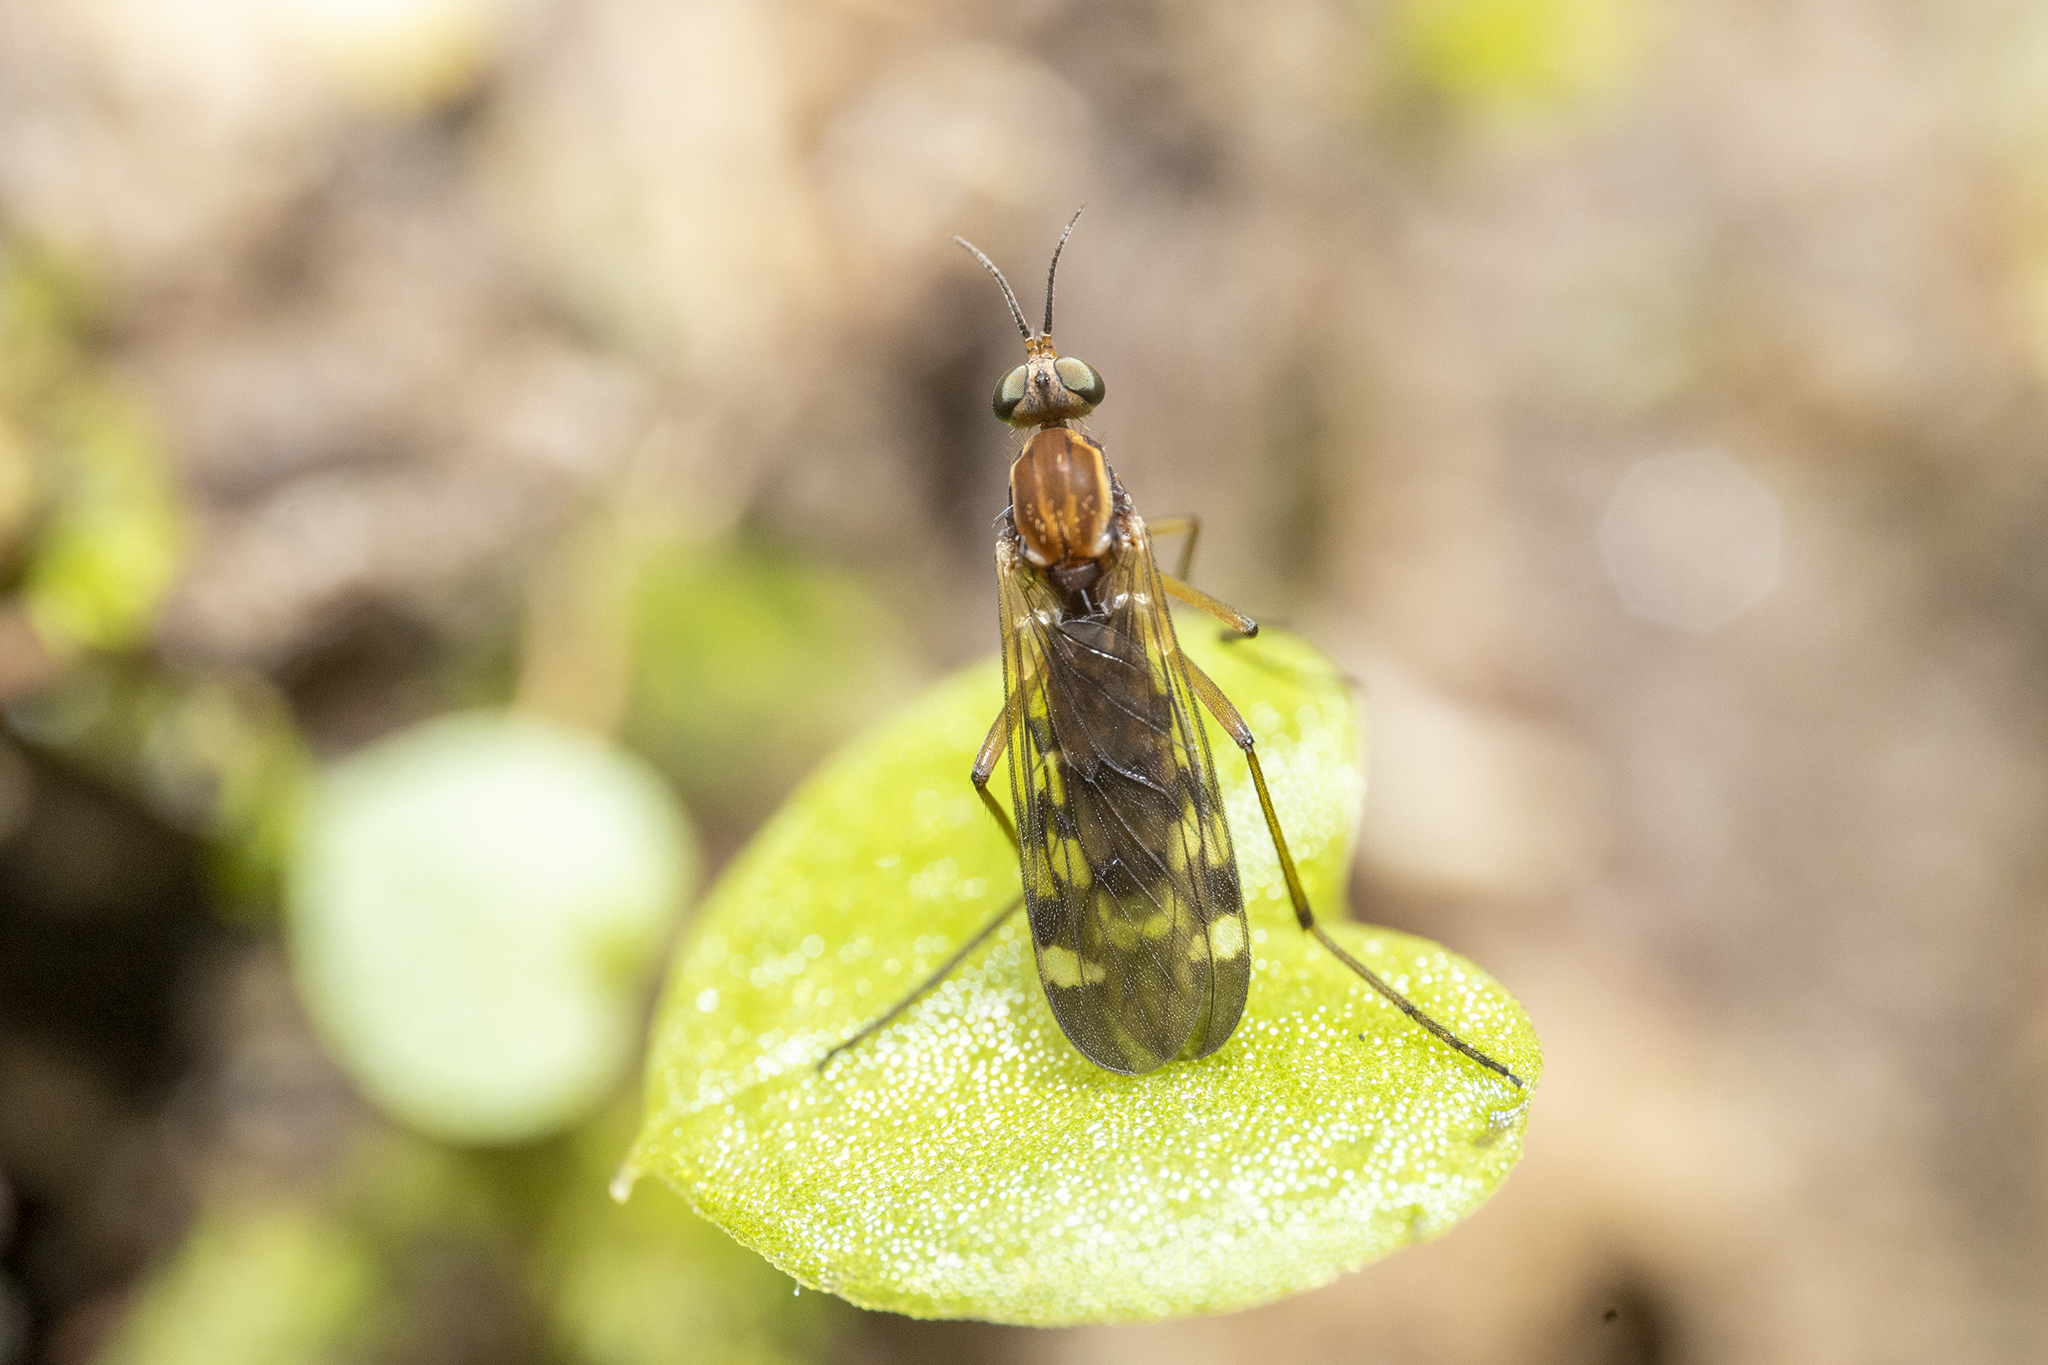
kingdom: Animalia
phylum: Arthropoda
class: Insecta
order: Diptera
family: Anisopodidae
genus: Sylvicola
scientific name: Sylvicola notatus
